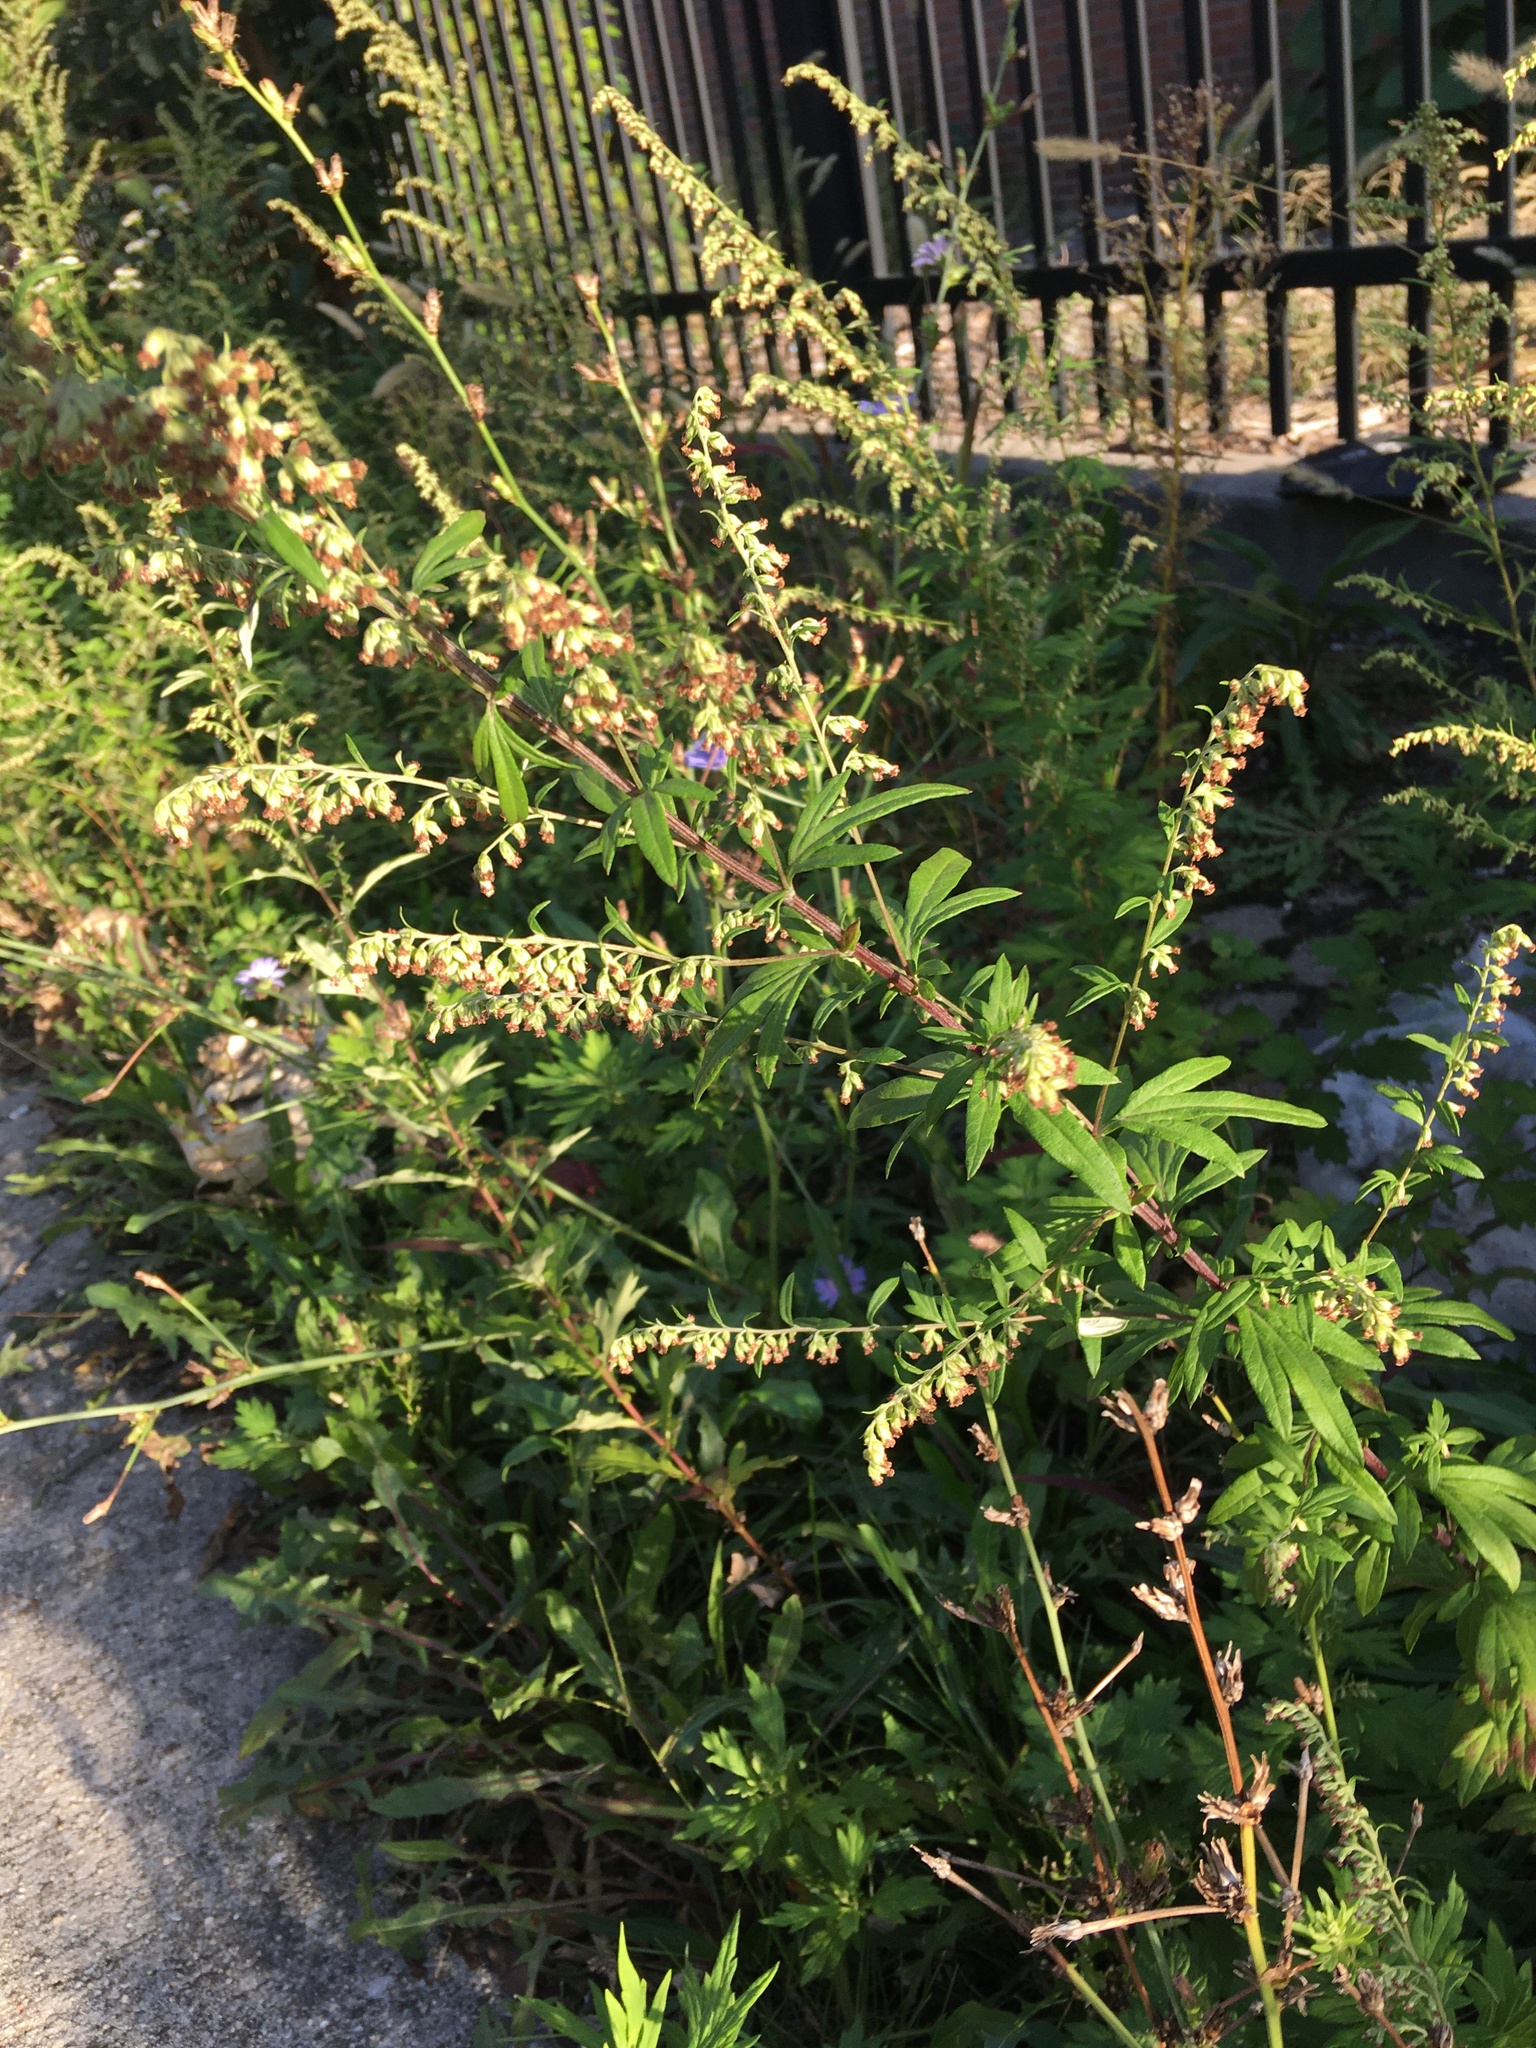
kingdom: Plantae
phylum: Tracheophyta
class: Magnoliopsida
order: Asterales
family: Asteraceae
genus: Artemisia
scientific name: Artemisia vulgaris
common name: Mugwort
